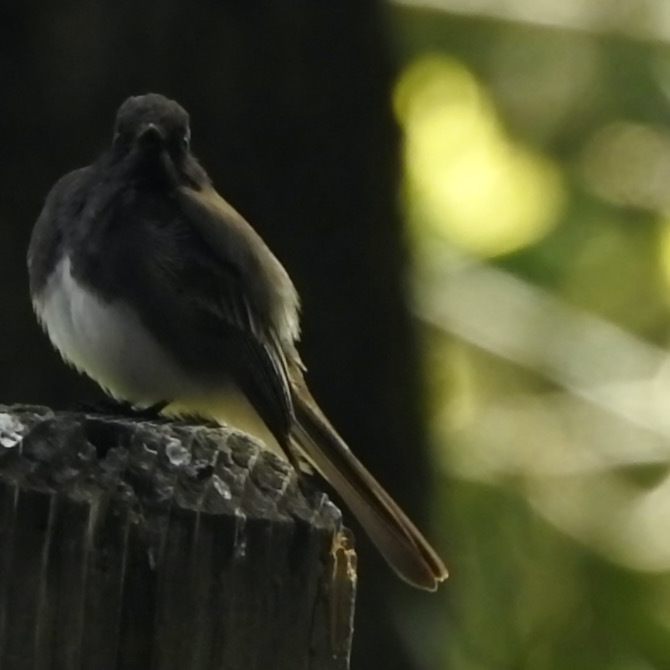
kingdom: Animalia
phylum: Chordata
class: Aves
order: Passeriformes
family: Tyrannidae
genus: Sayornis
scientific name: Sayornis nigricans
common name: Black phoebe
